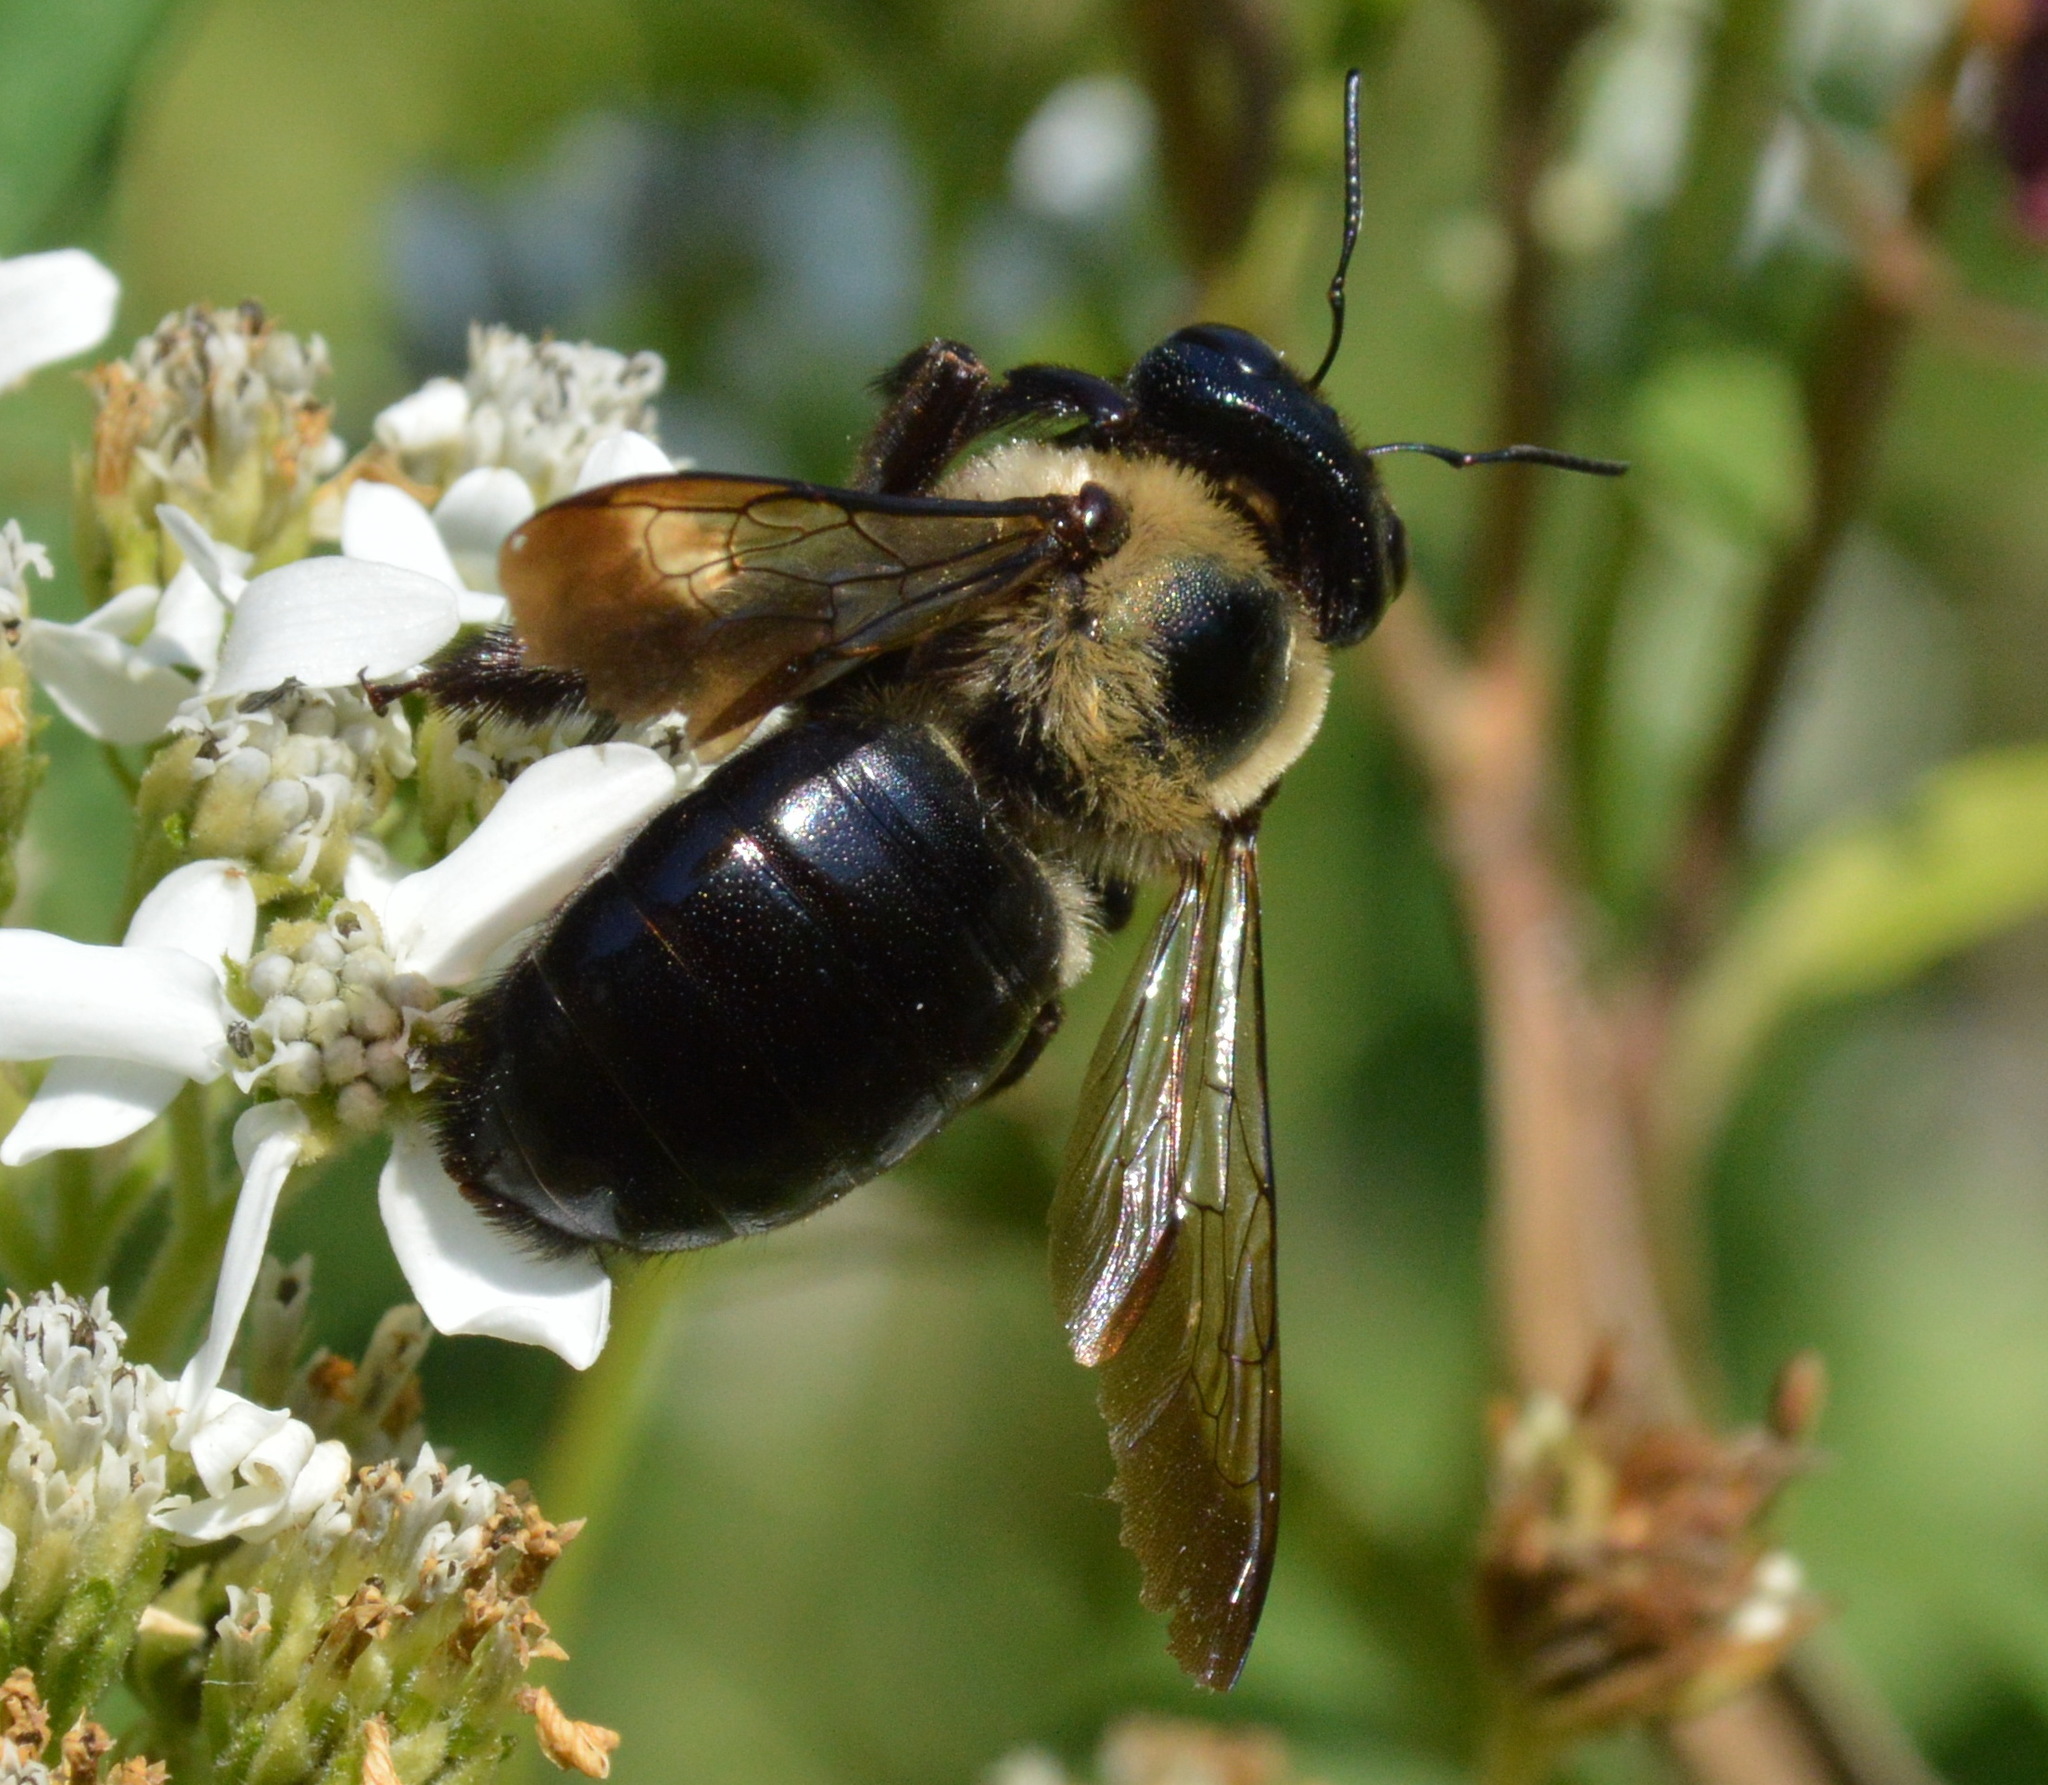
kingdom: Animalia
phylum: Arthropoda
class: Insecta
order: Hymenoptera
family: Apidae
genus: Xylocopa
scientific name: Xylocopa virginica
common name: Carpenter bee
